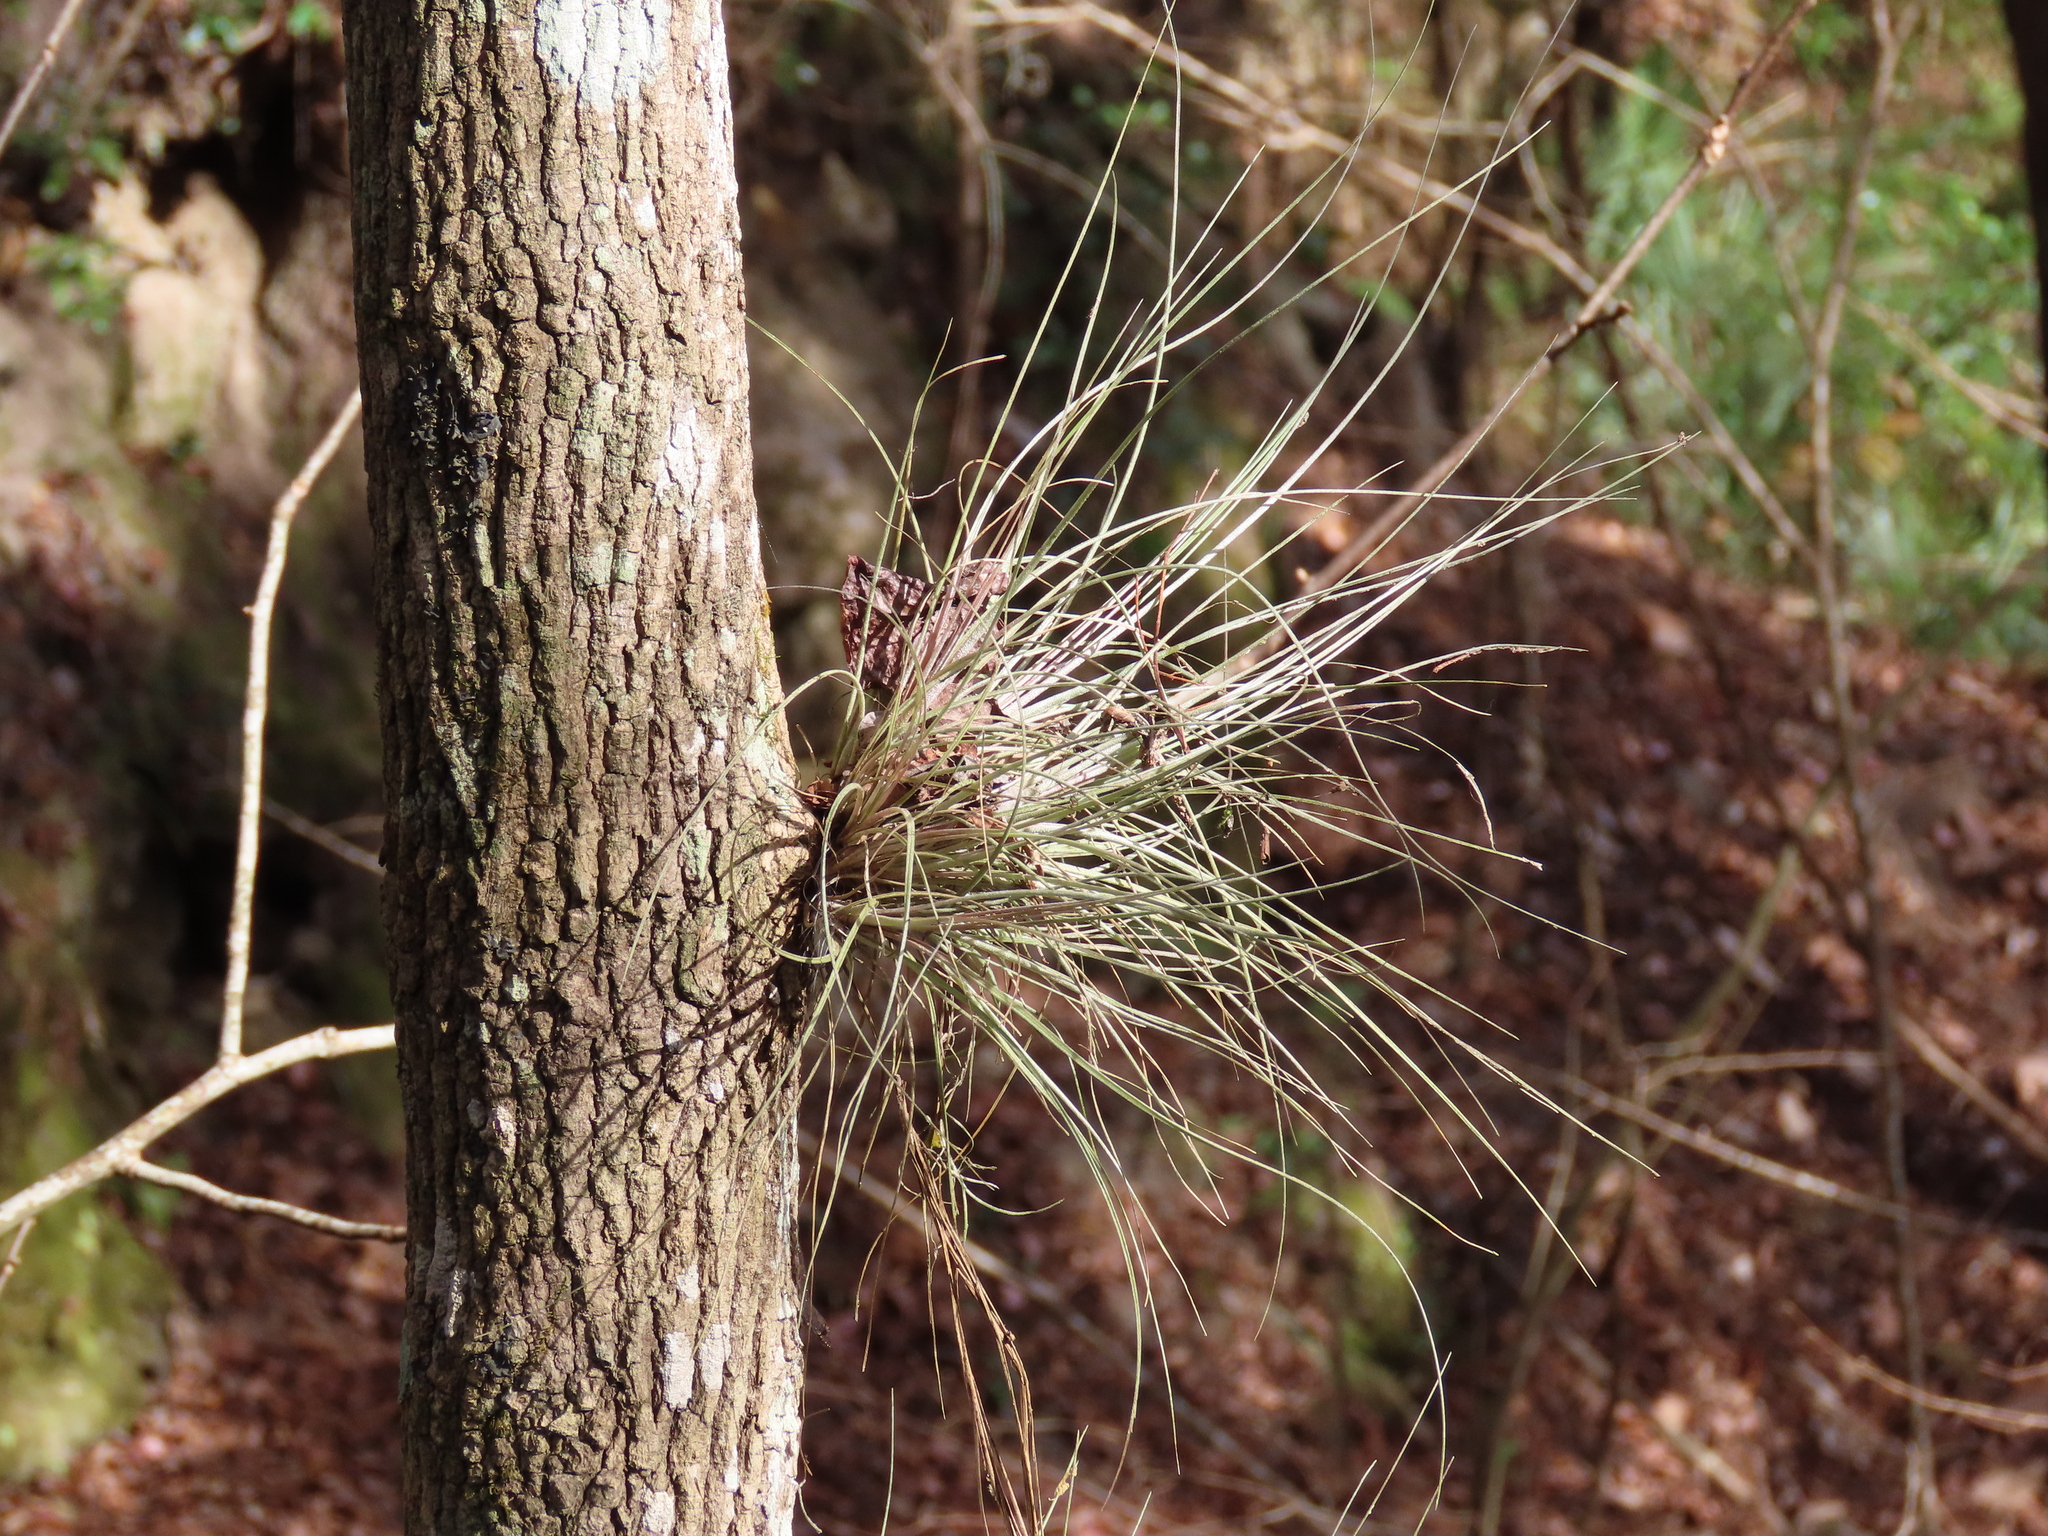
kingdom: Plantae
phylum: Tracheophyta
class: Liliopsida
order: Poales
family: Bromeliaceae
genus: Tillandsia
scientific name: Tillandsia bartramii
